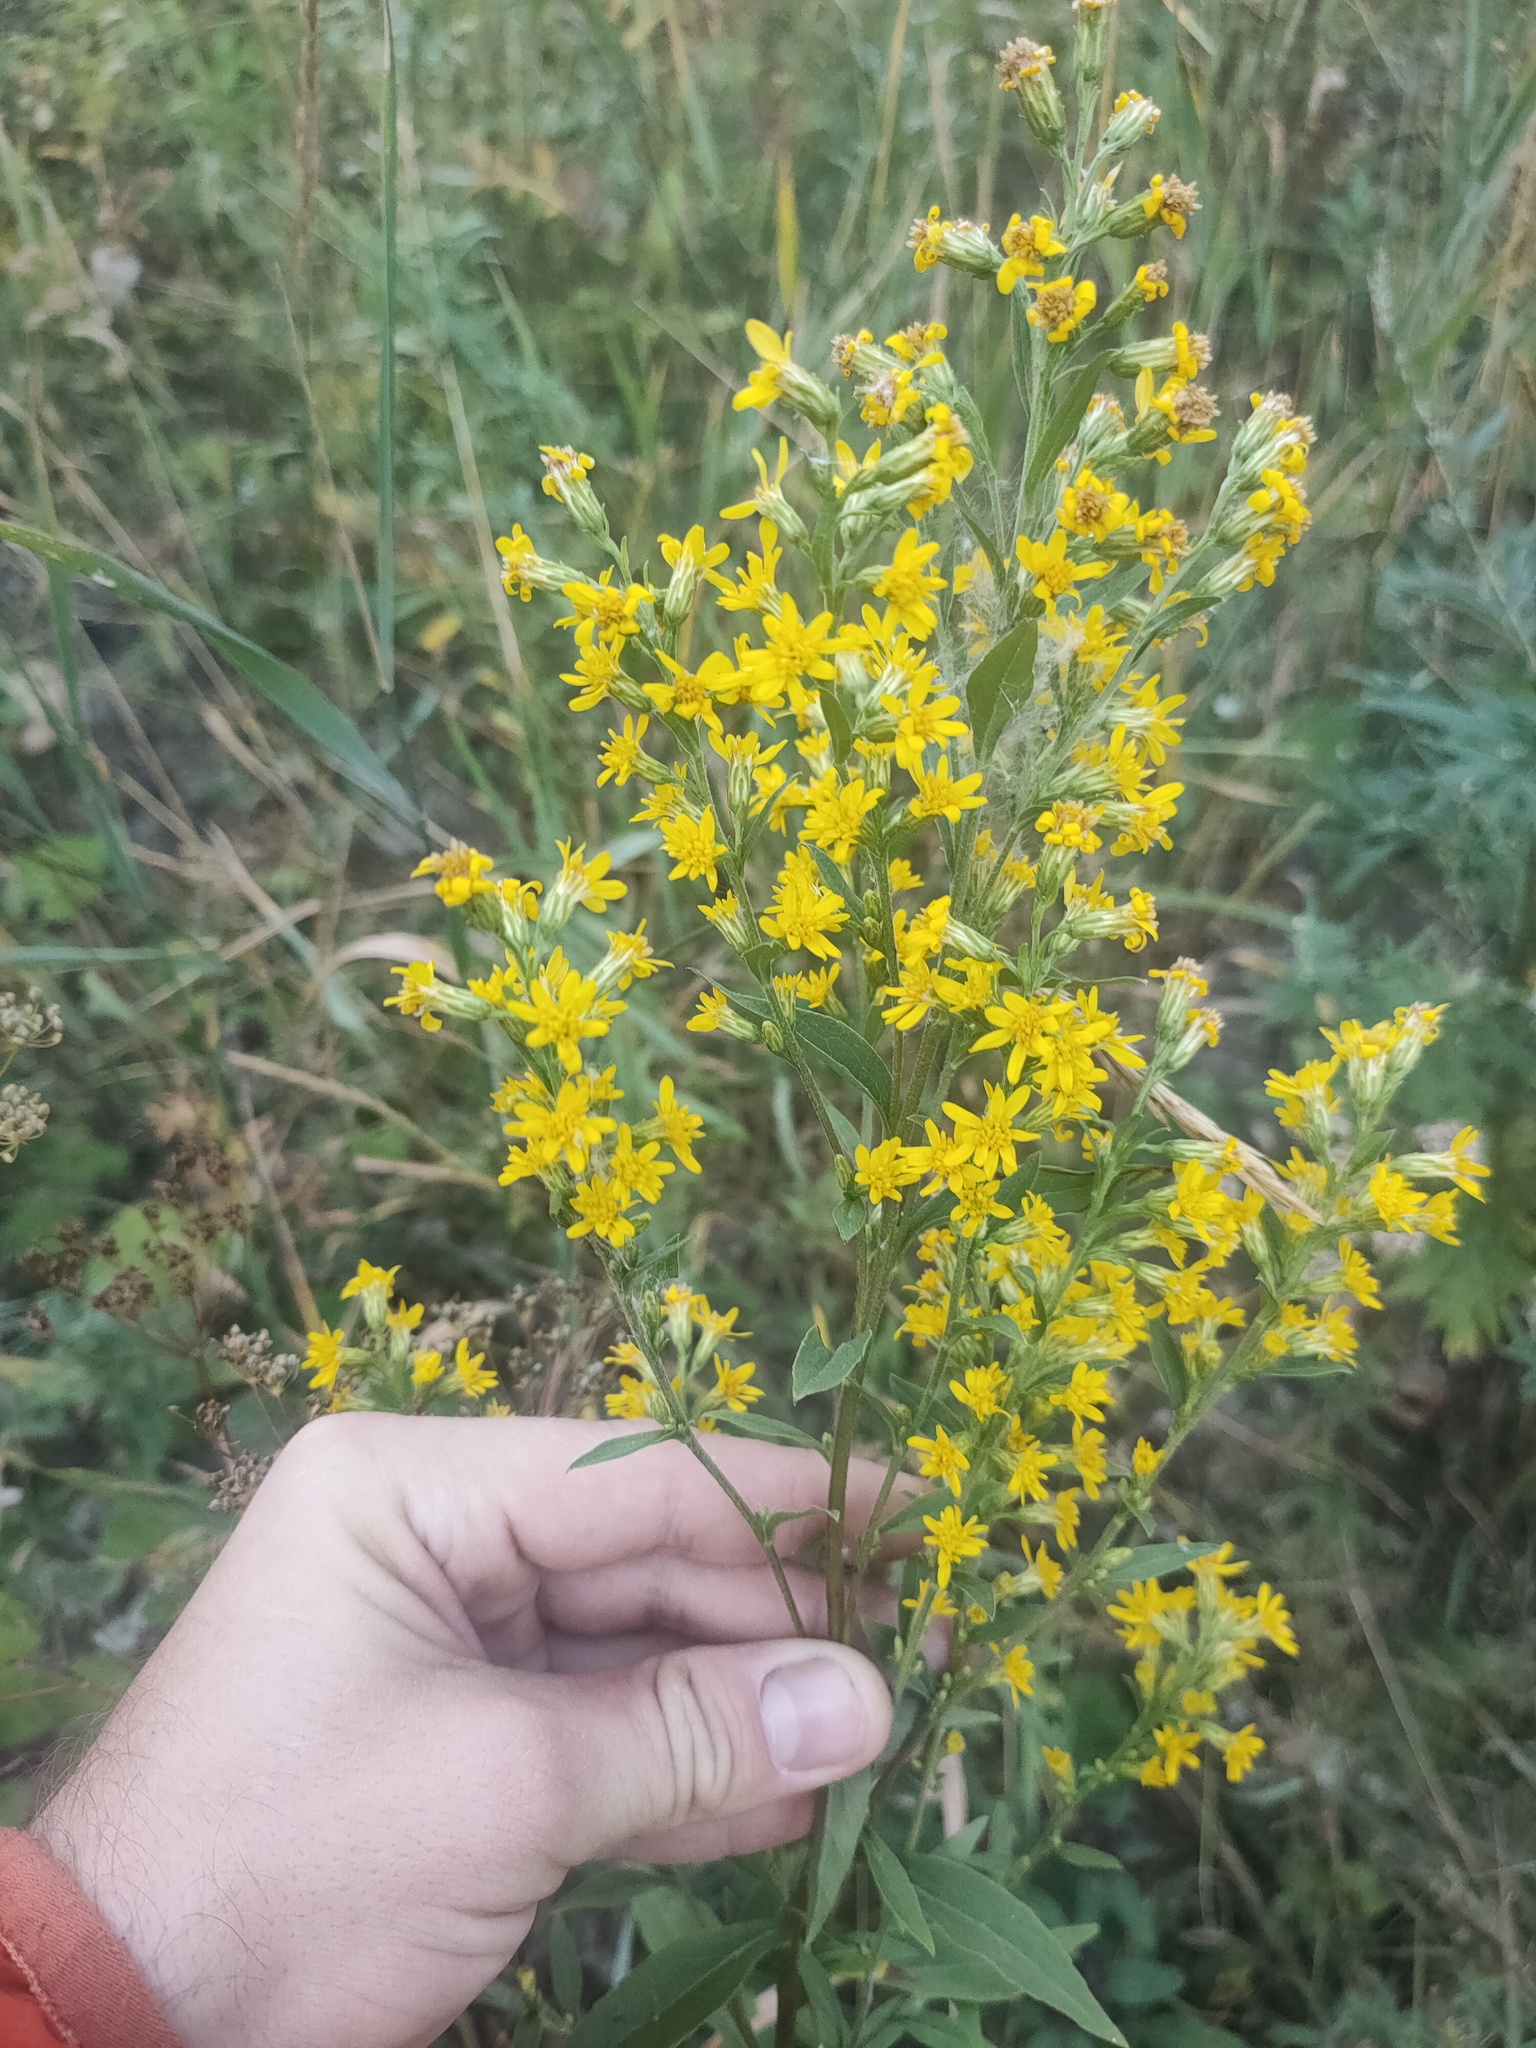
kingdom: Plantae
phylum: Tracheophyta
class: Magnoliopsida
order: Asterales
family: Asteraceae
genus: Solidago
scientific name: Solidago virgaurea
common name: Goldenrod
